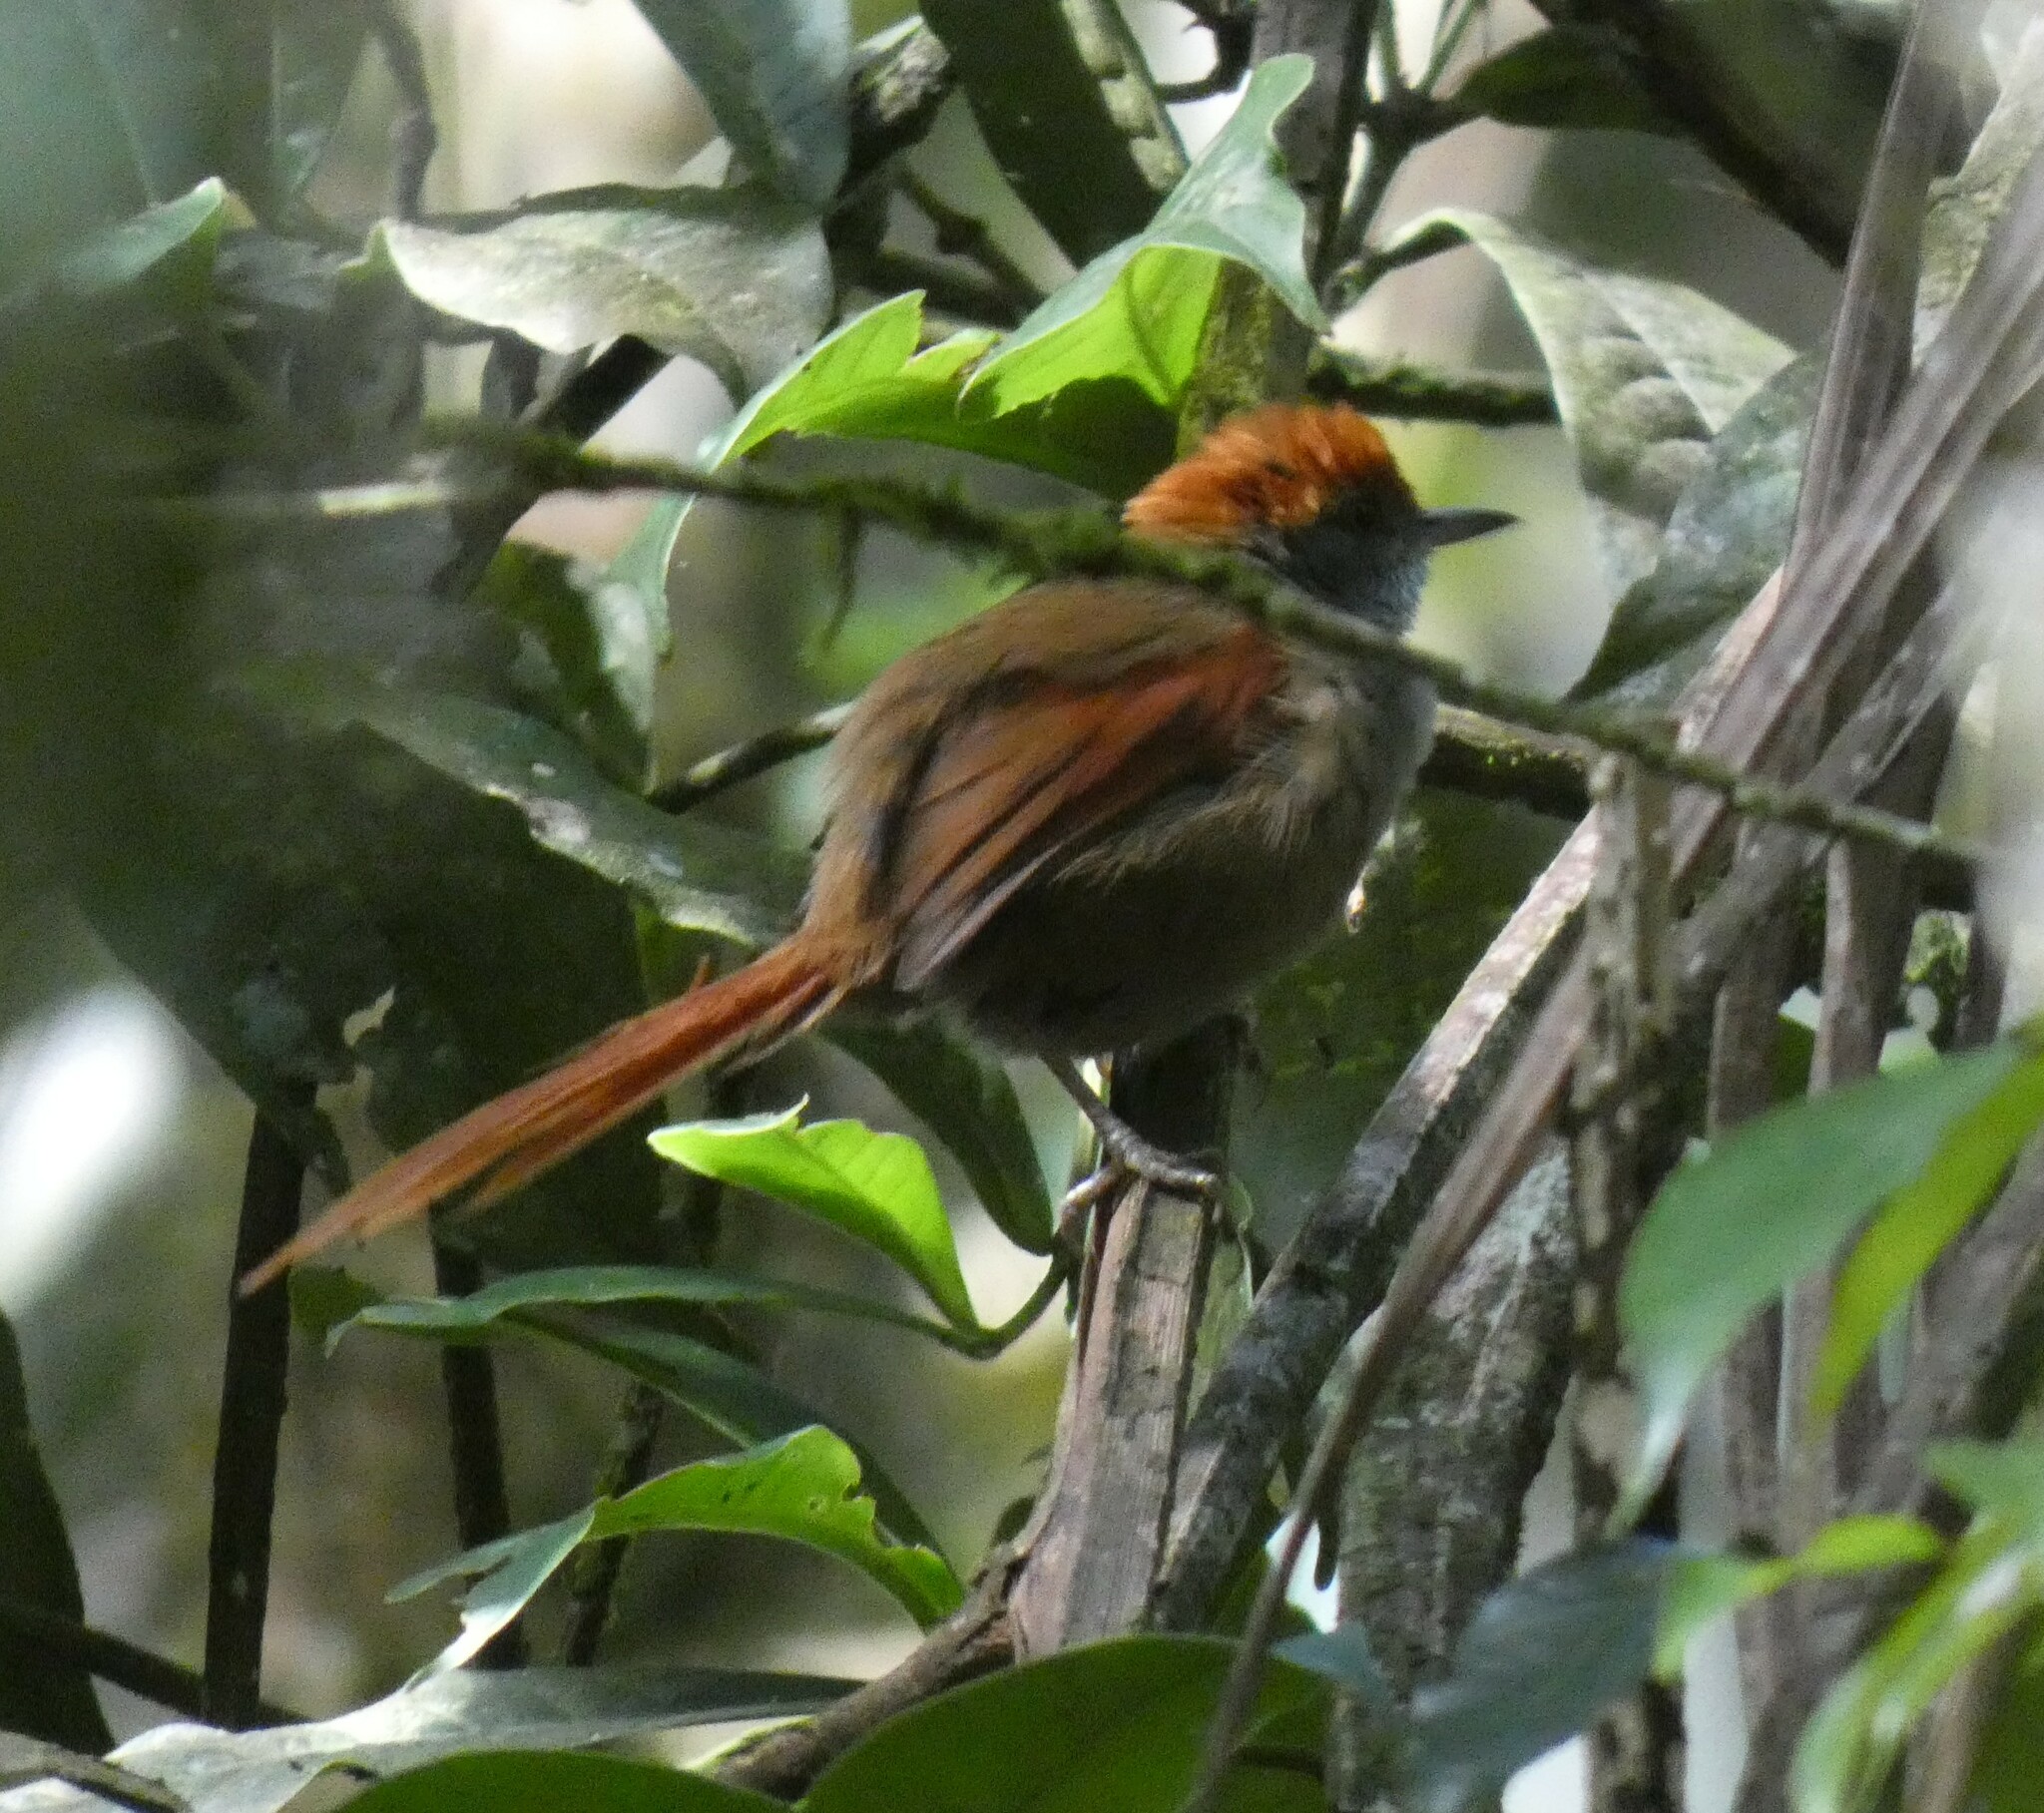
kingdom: Animalia
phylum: Chordata
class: Aves
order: Passeriformes
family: Furnariidae
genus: Synallaxis
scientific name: Synallaxis ruficapilla
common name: Rufous-capped spinetail
